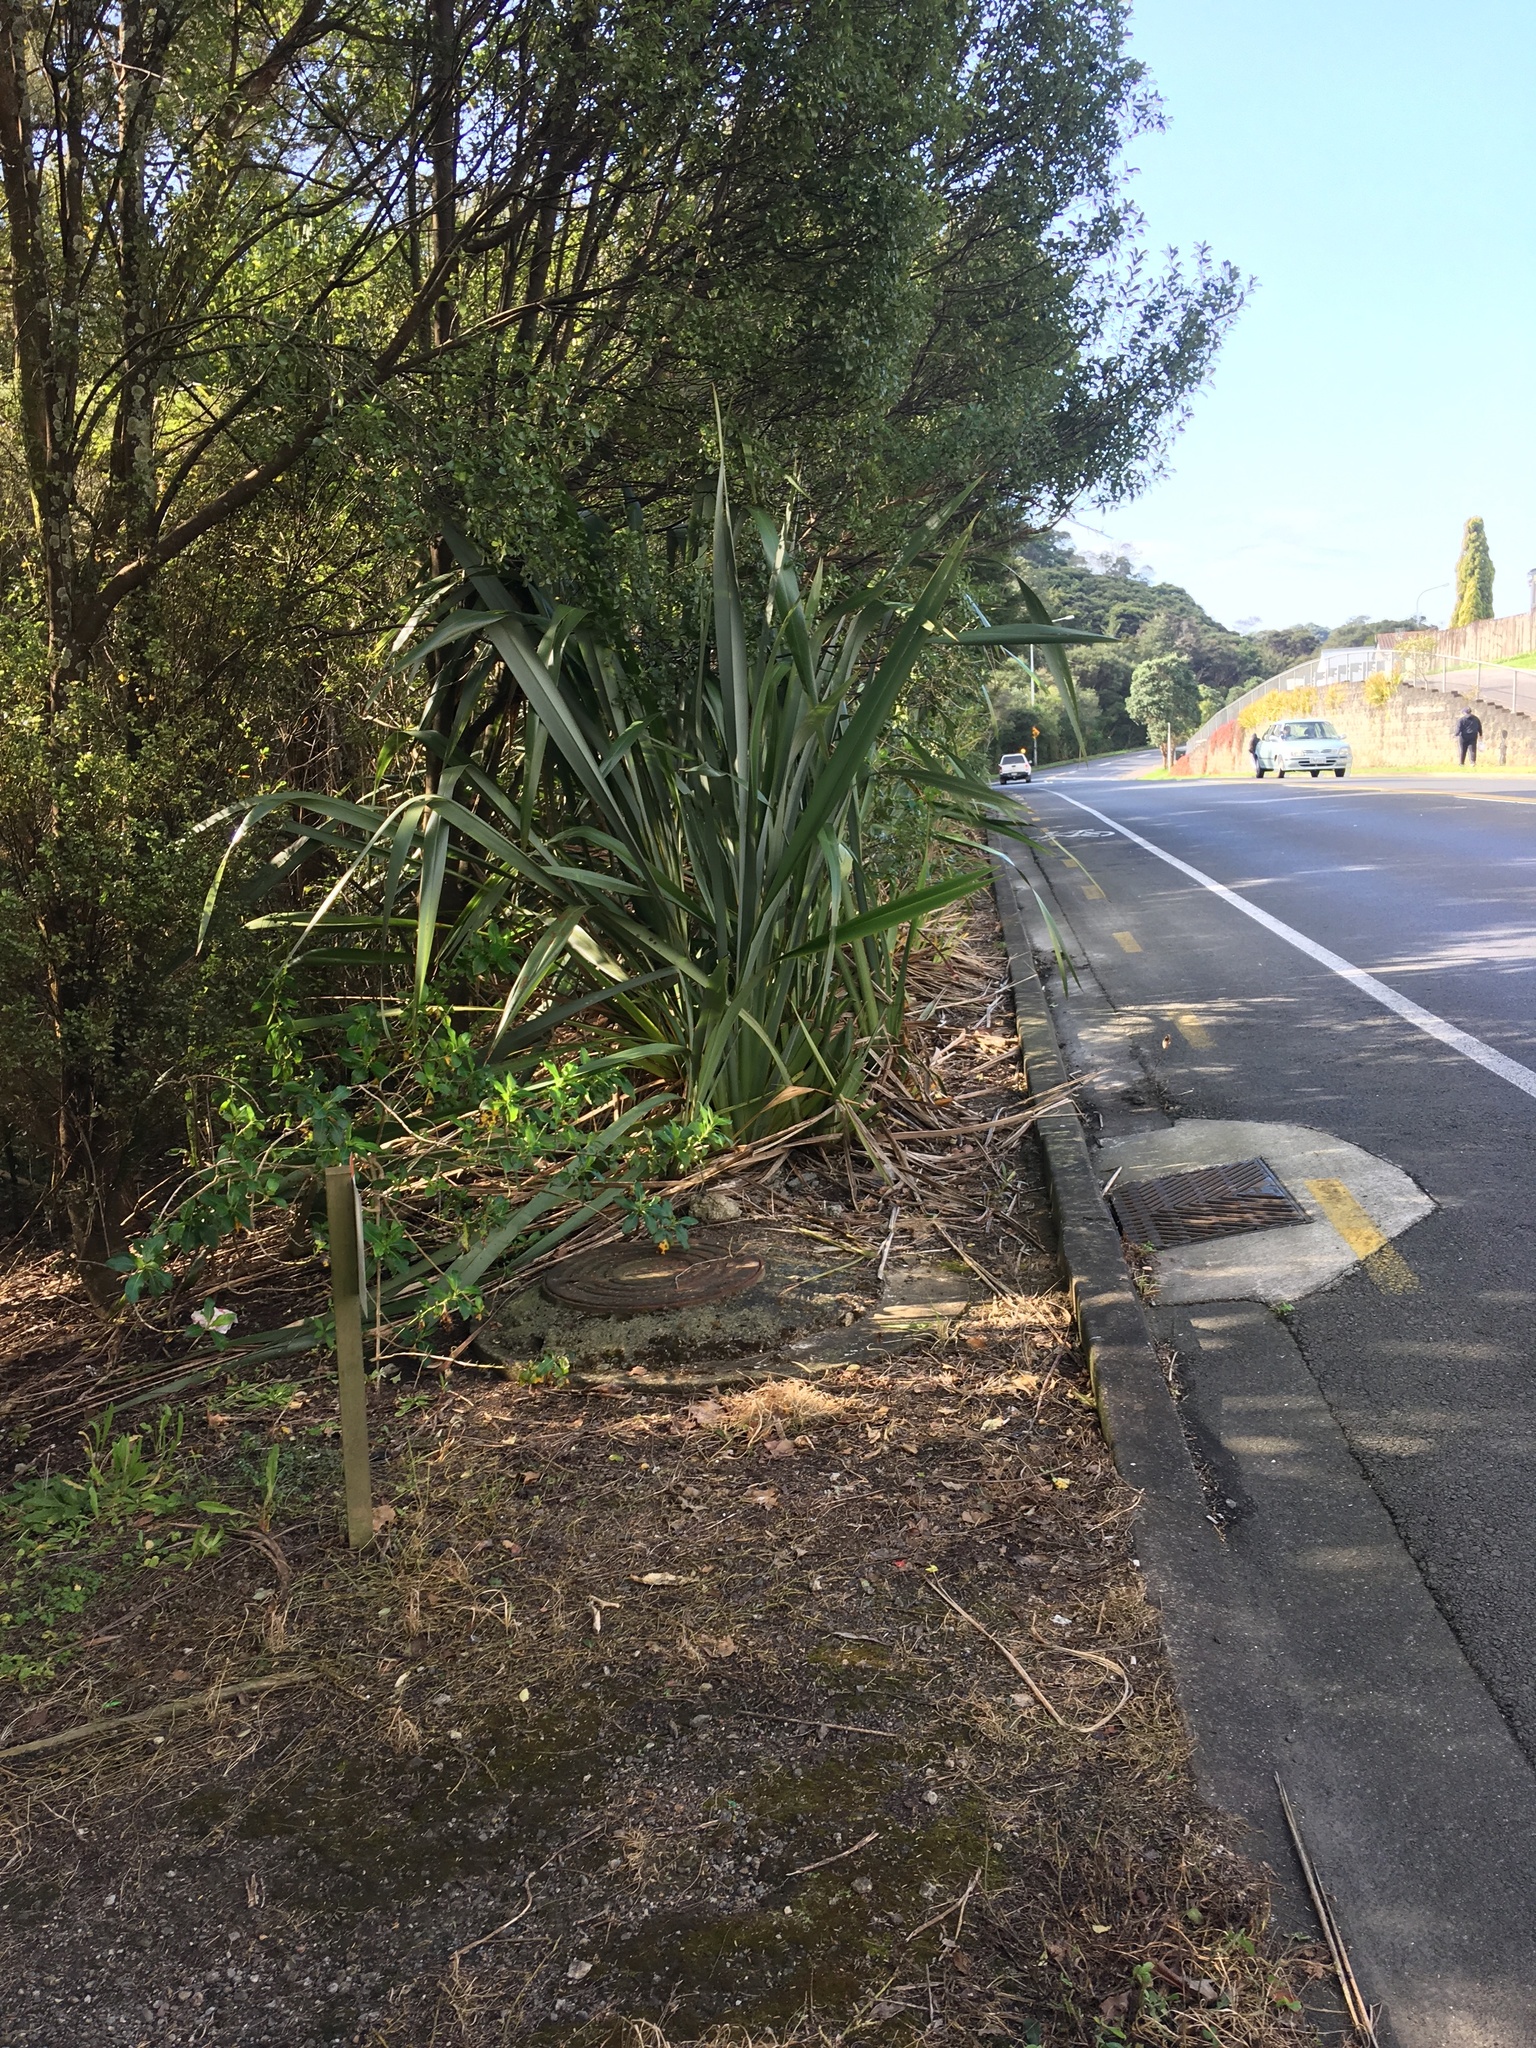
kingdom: Plantae
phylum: Tracheophyta
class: Liliopsida
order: Asparagales
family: Asphodelaceae
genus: Phormium
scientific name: Phormium tenax
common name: New zealand flax
